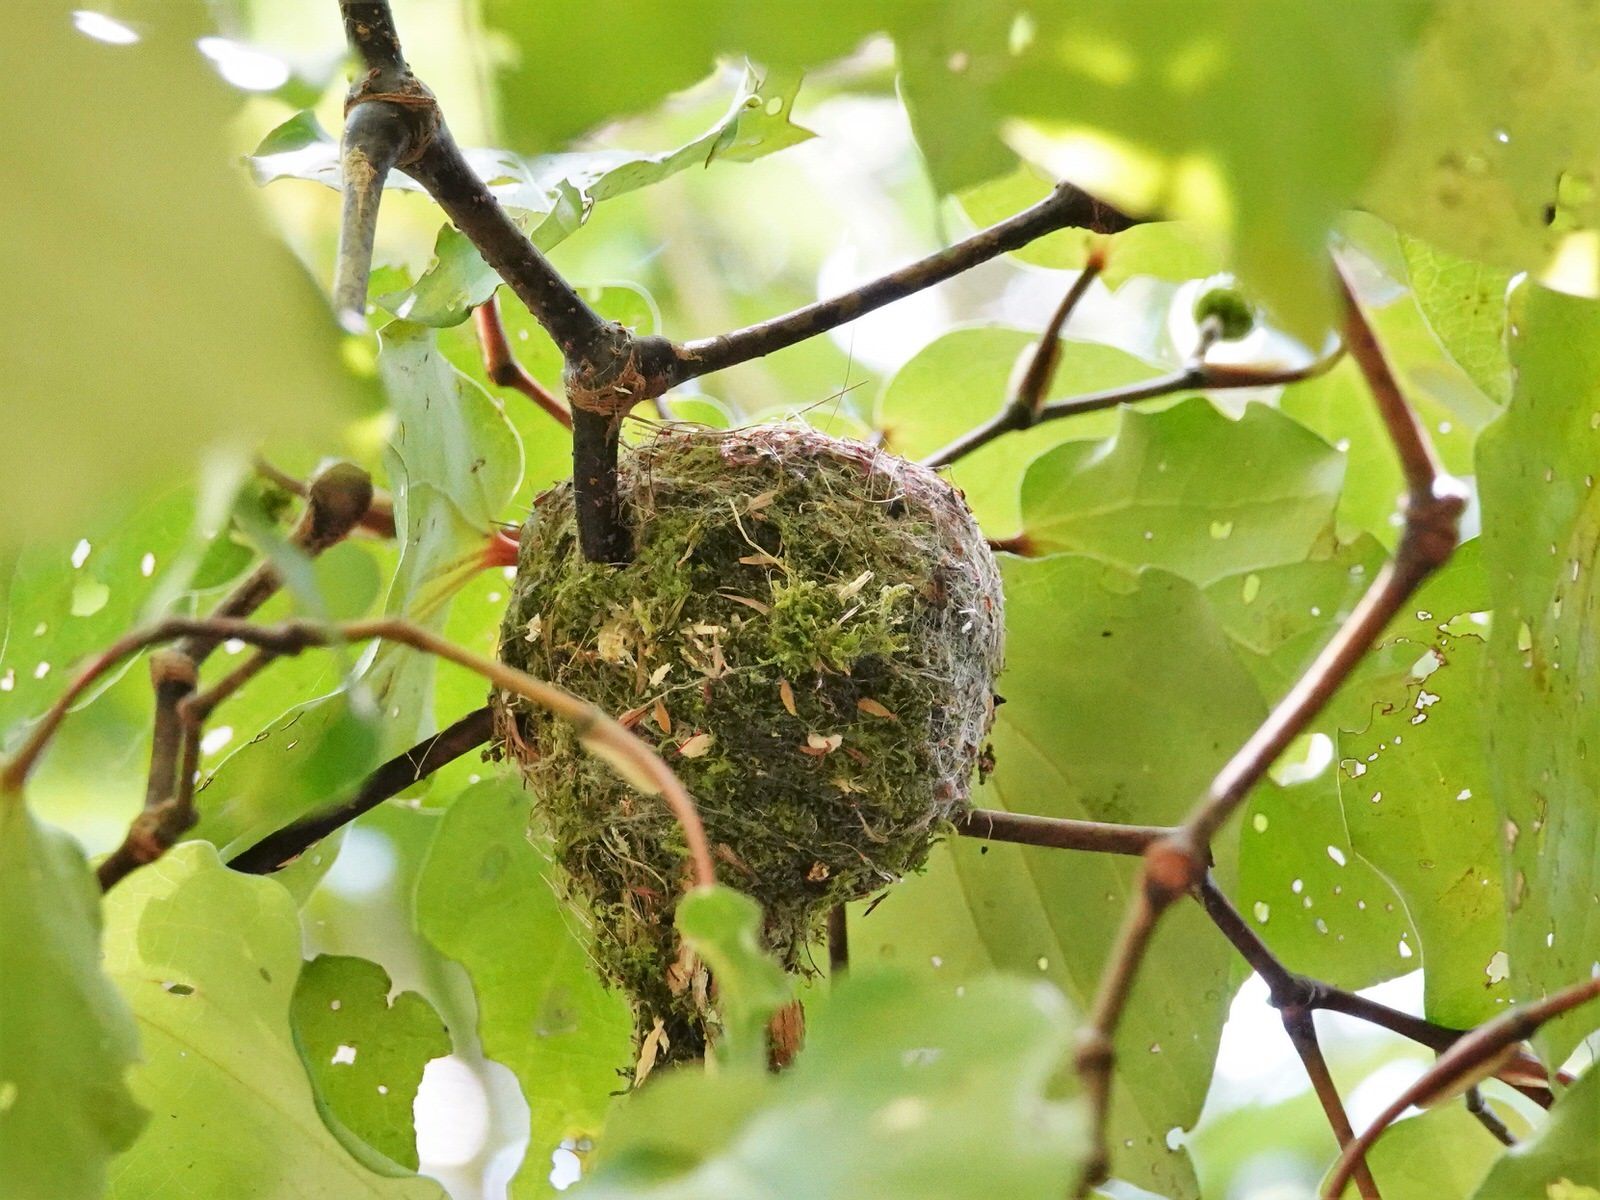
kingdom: Animalia
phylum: Chordata
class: Aves
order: Passeriformes
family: Rhipiduridae
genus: Rhipidura
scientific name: Rhipidura fuliginosa
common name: New zealand fantail
